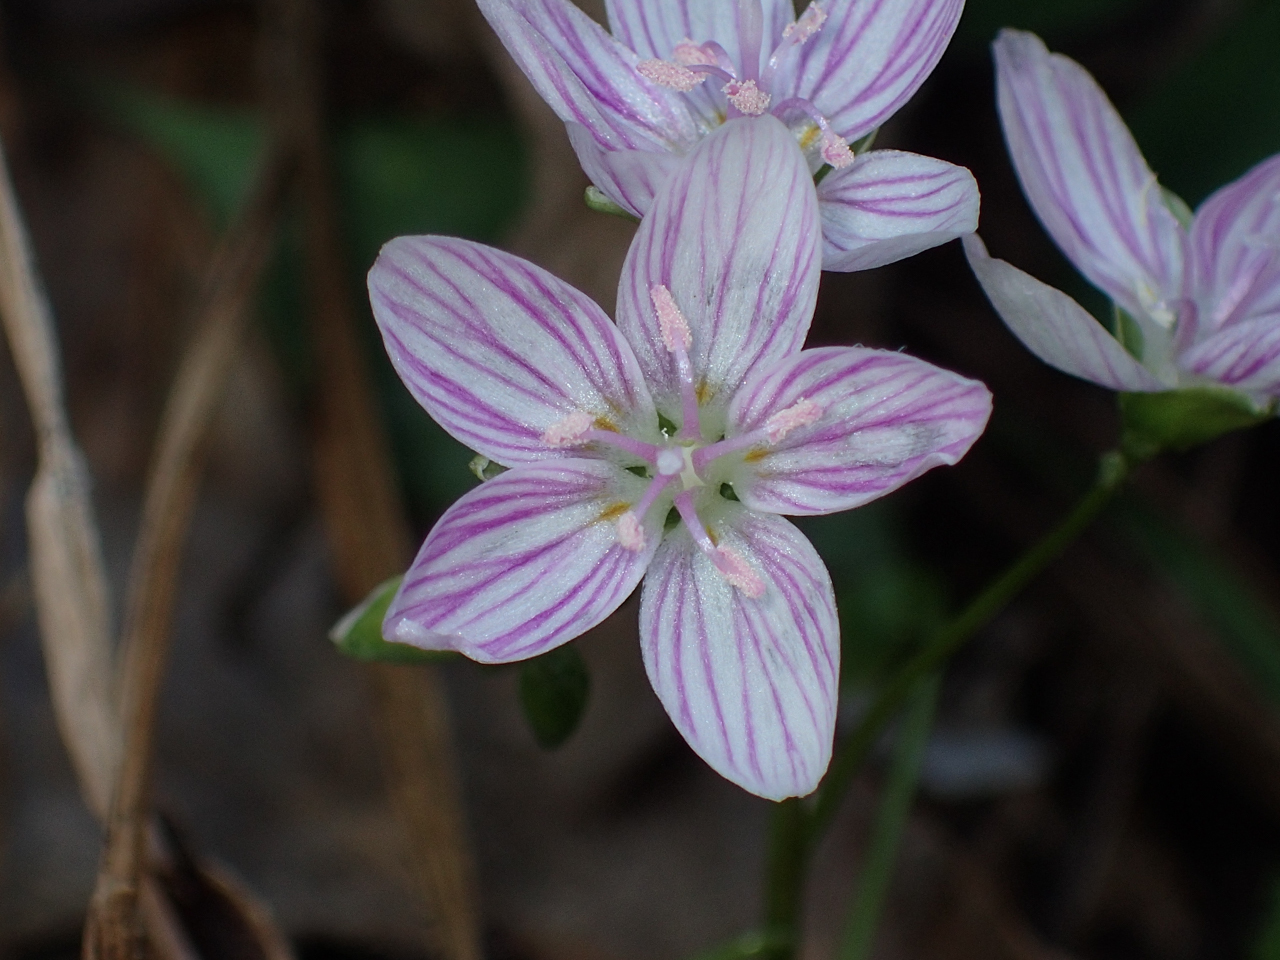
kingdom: Plantae
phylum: Tracheophyta
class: Magnoliopsida
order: Caryophyllales
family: Montiaceae
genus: Claytonia
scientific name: Claytonia virginica
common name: Virginia springbeauty
